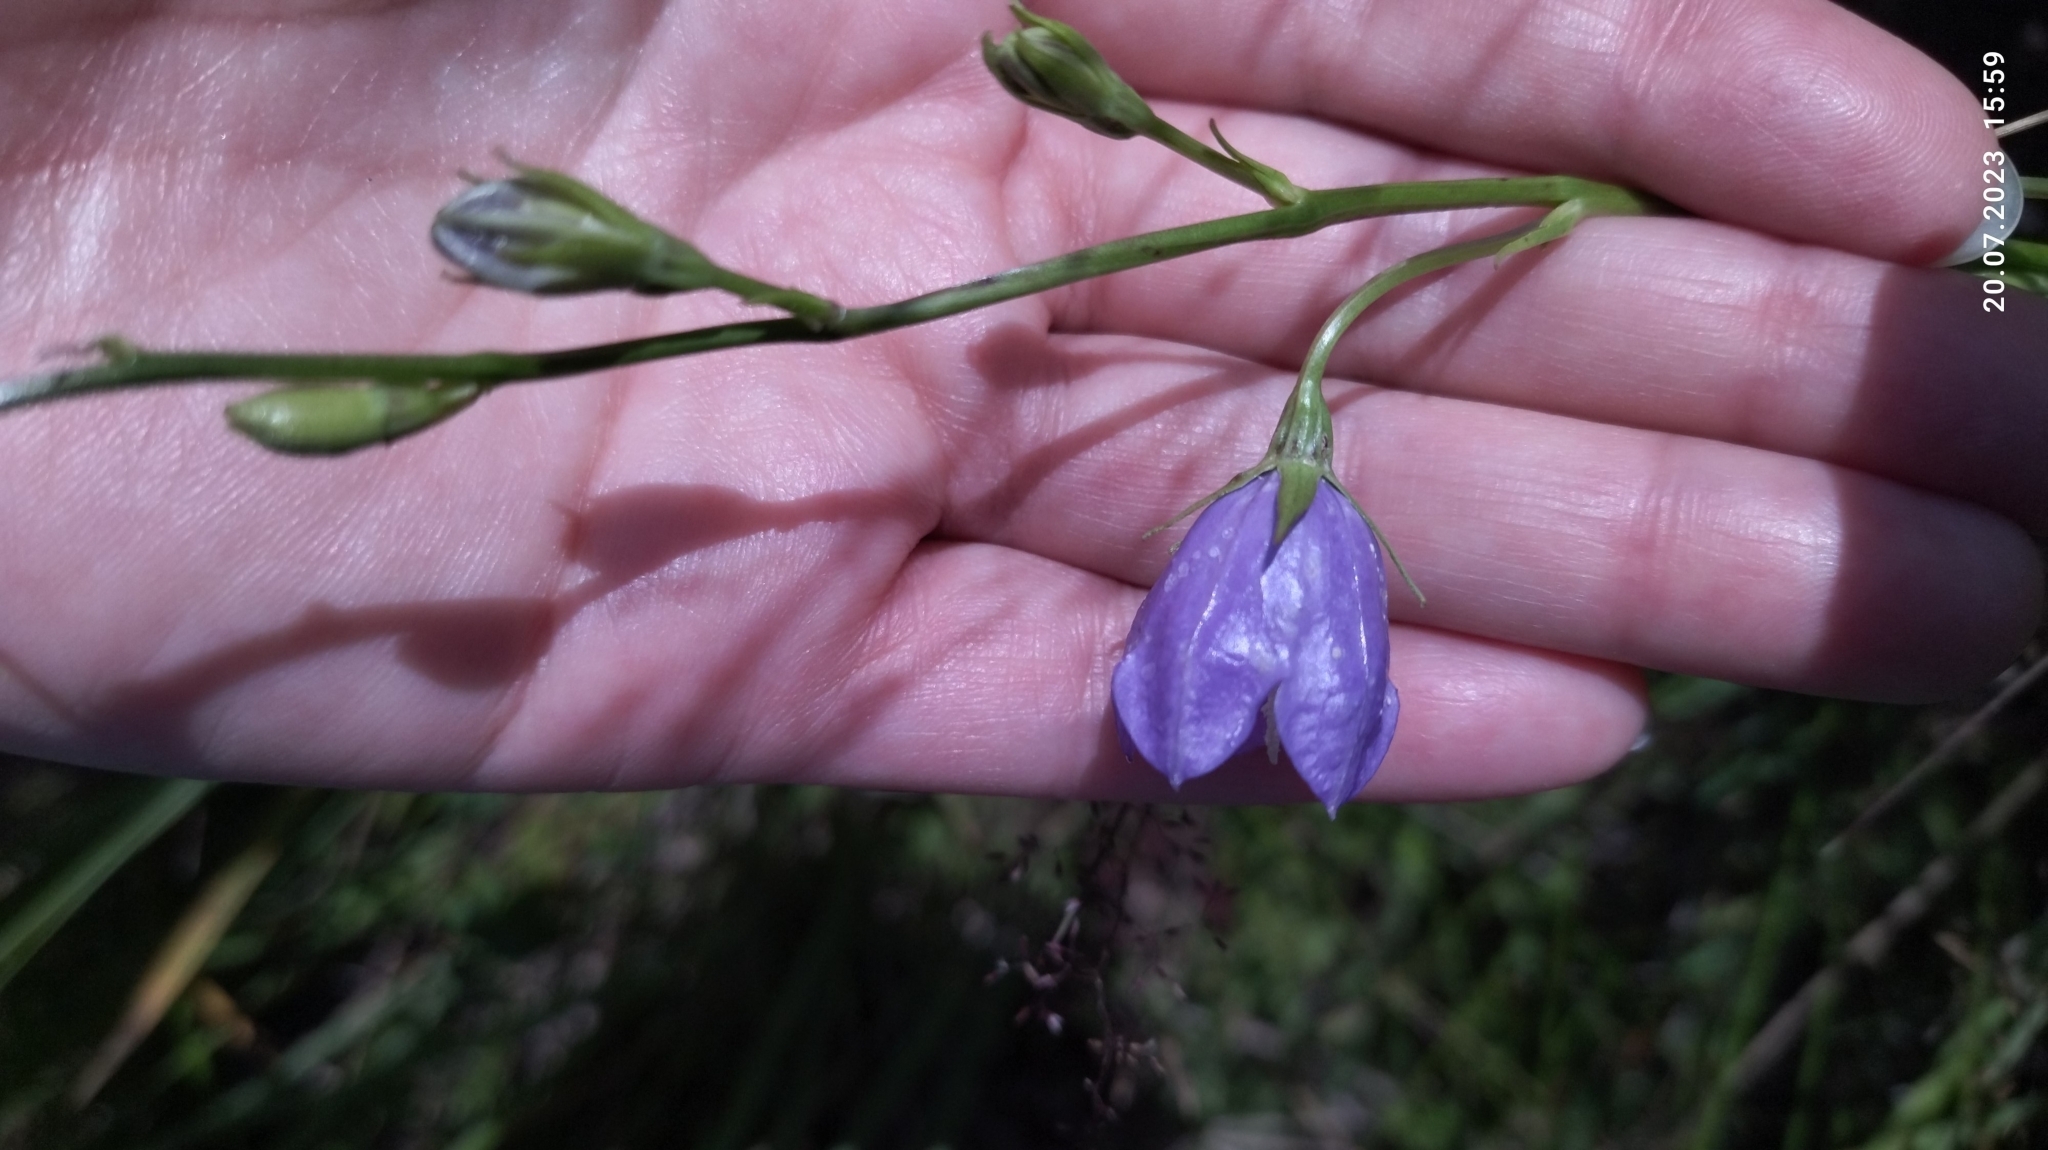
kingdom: Plantae
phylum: Tracheophyta
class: Magnoliopsida
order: Asterales
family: Campanulaceae
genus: Campanula
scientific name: Campanula persicifolia
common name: Peach-leaved bellflower
